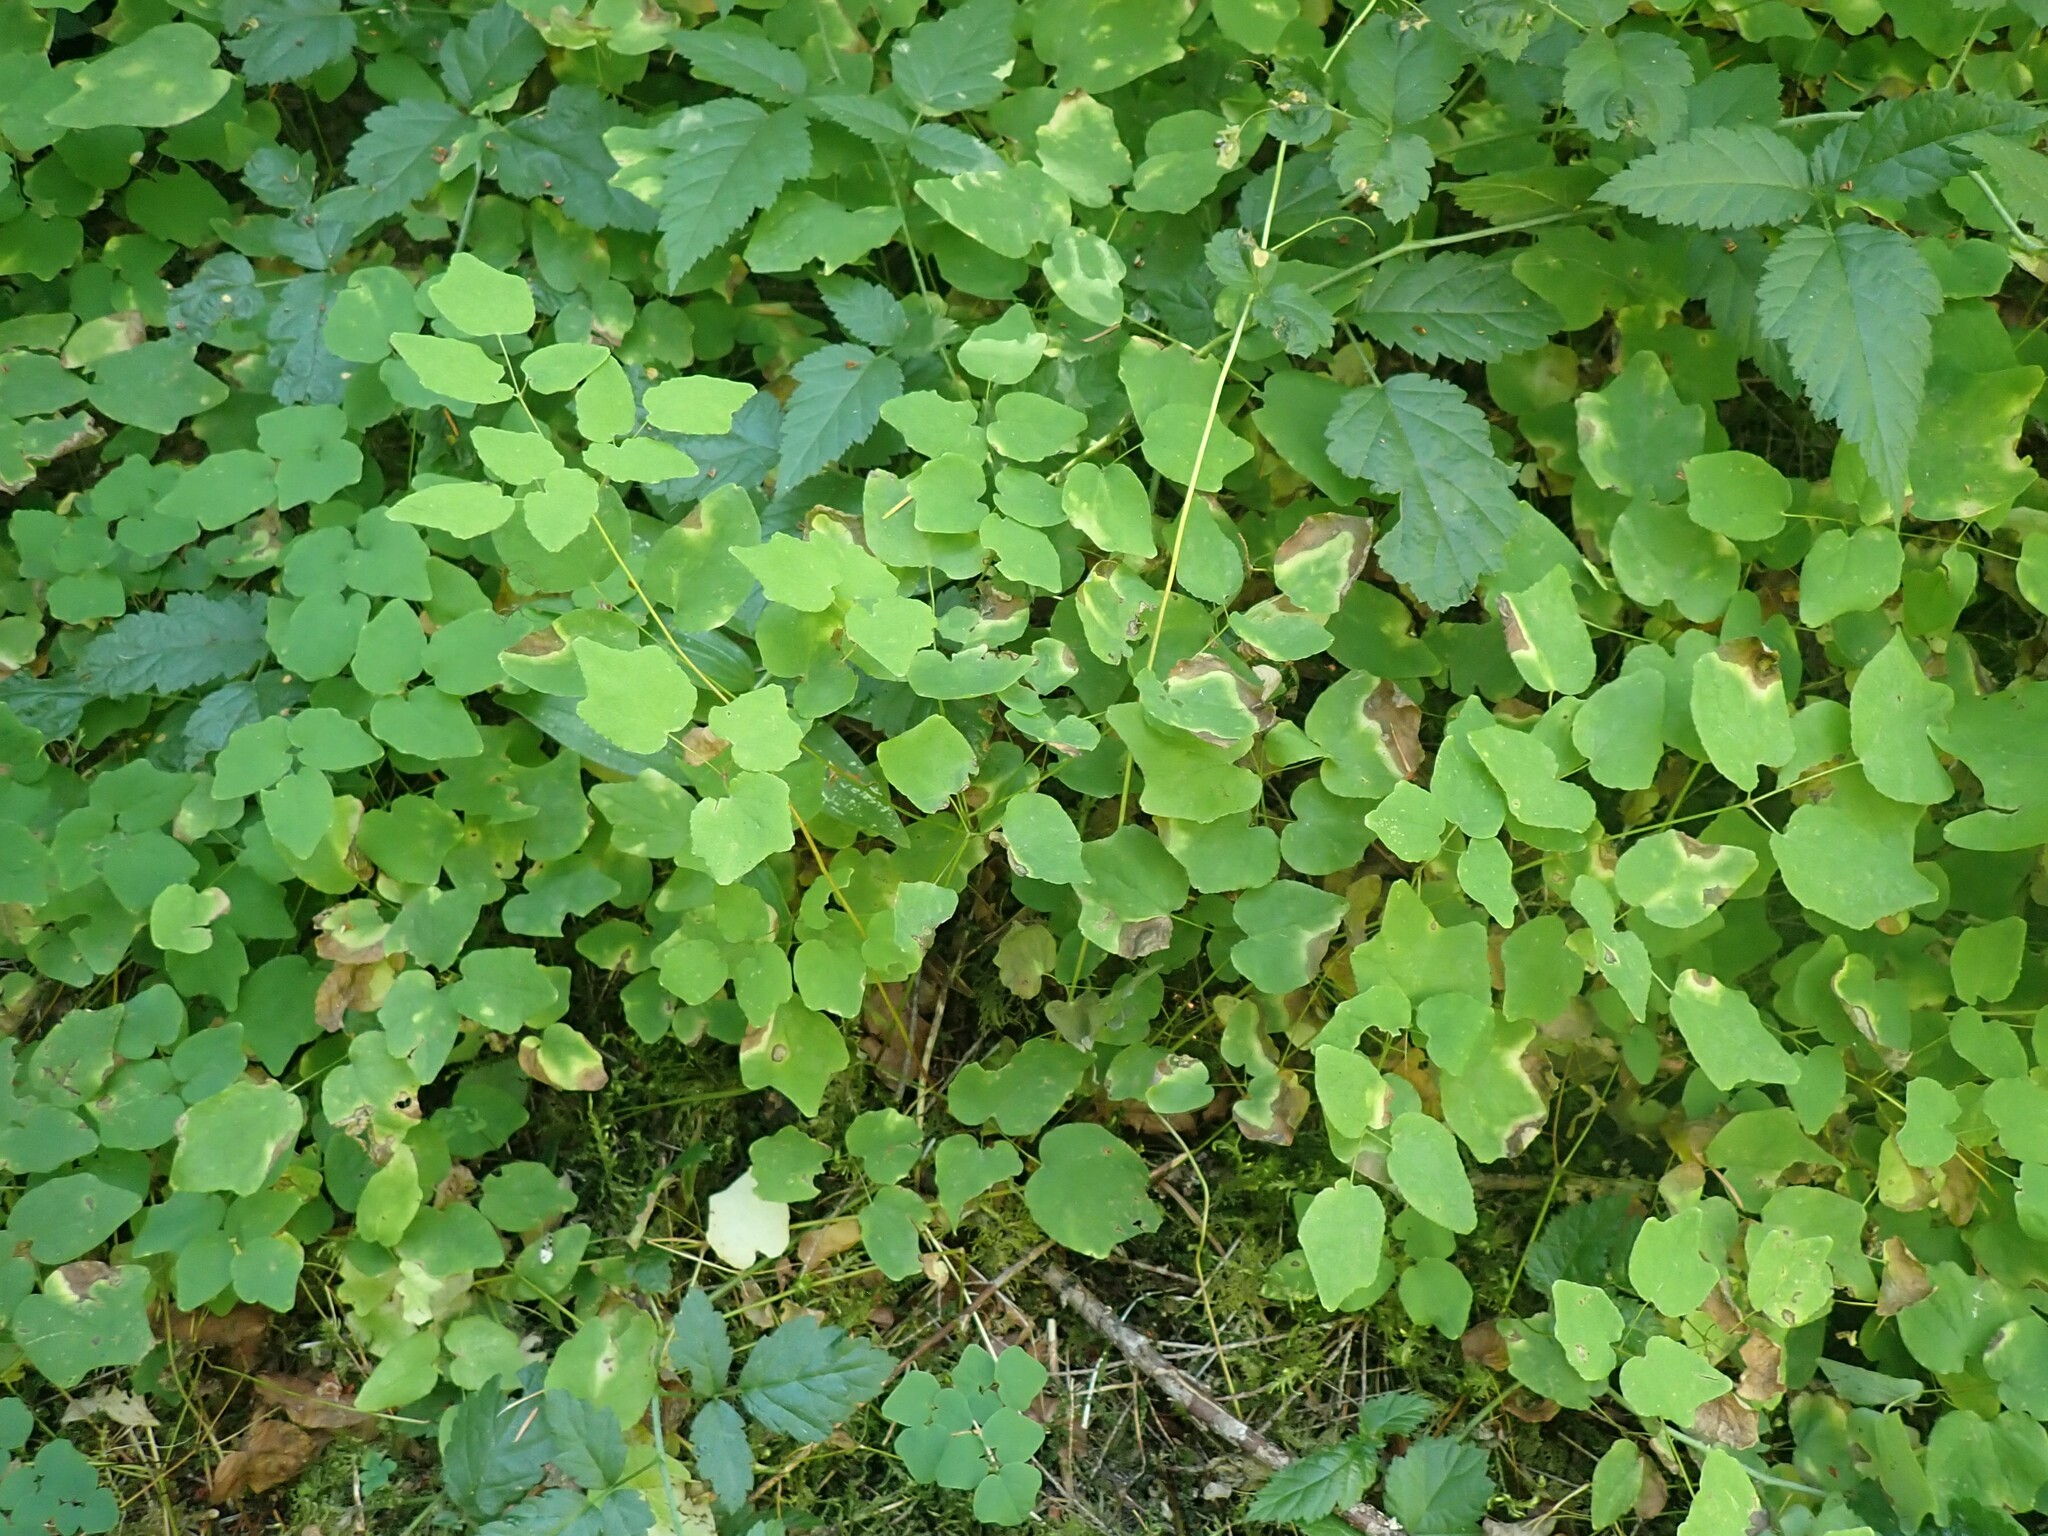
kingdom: Plantae
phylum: Tracheophyta
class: Magnoliopsida
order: Ranunculales
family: Berberidaceae
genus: Vancouveria
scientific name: Vancouveria hexandra
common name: Northern inside-out-flower
